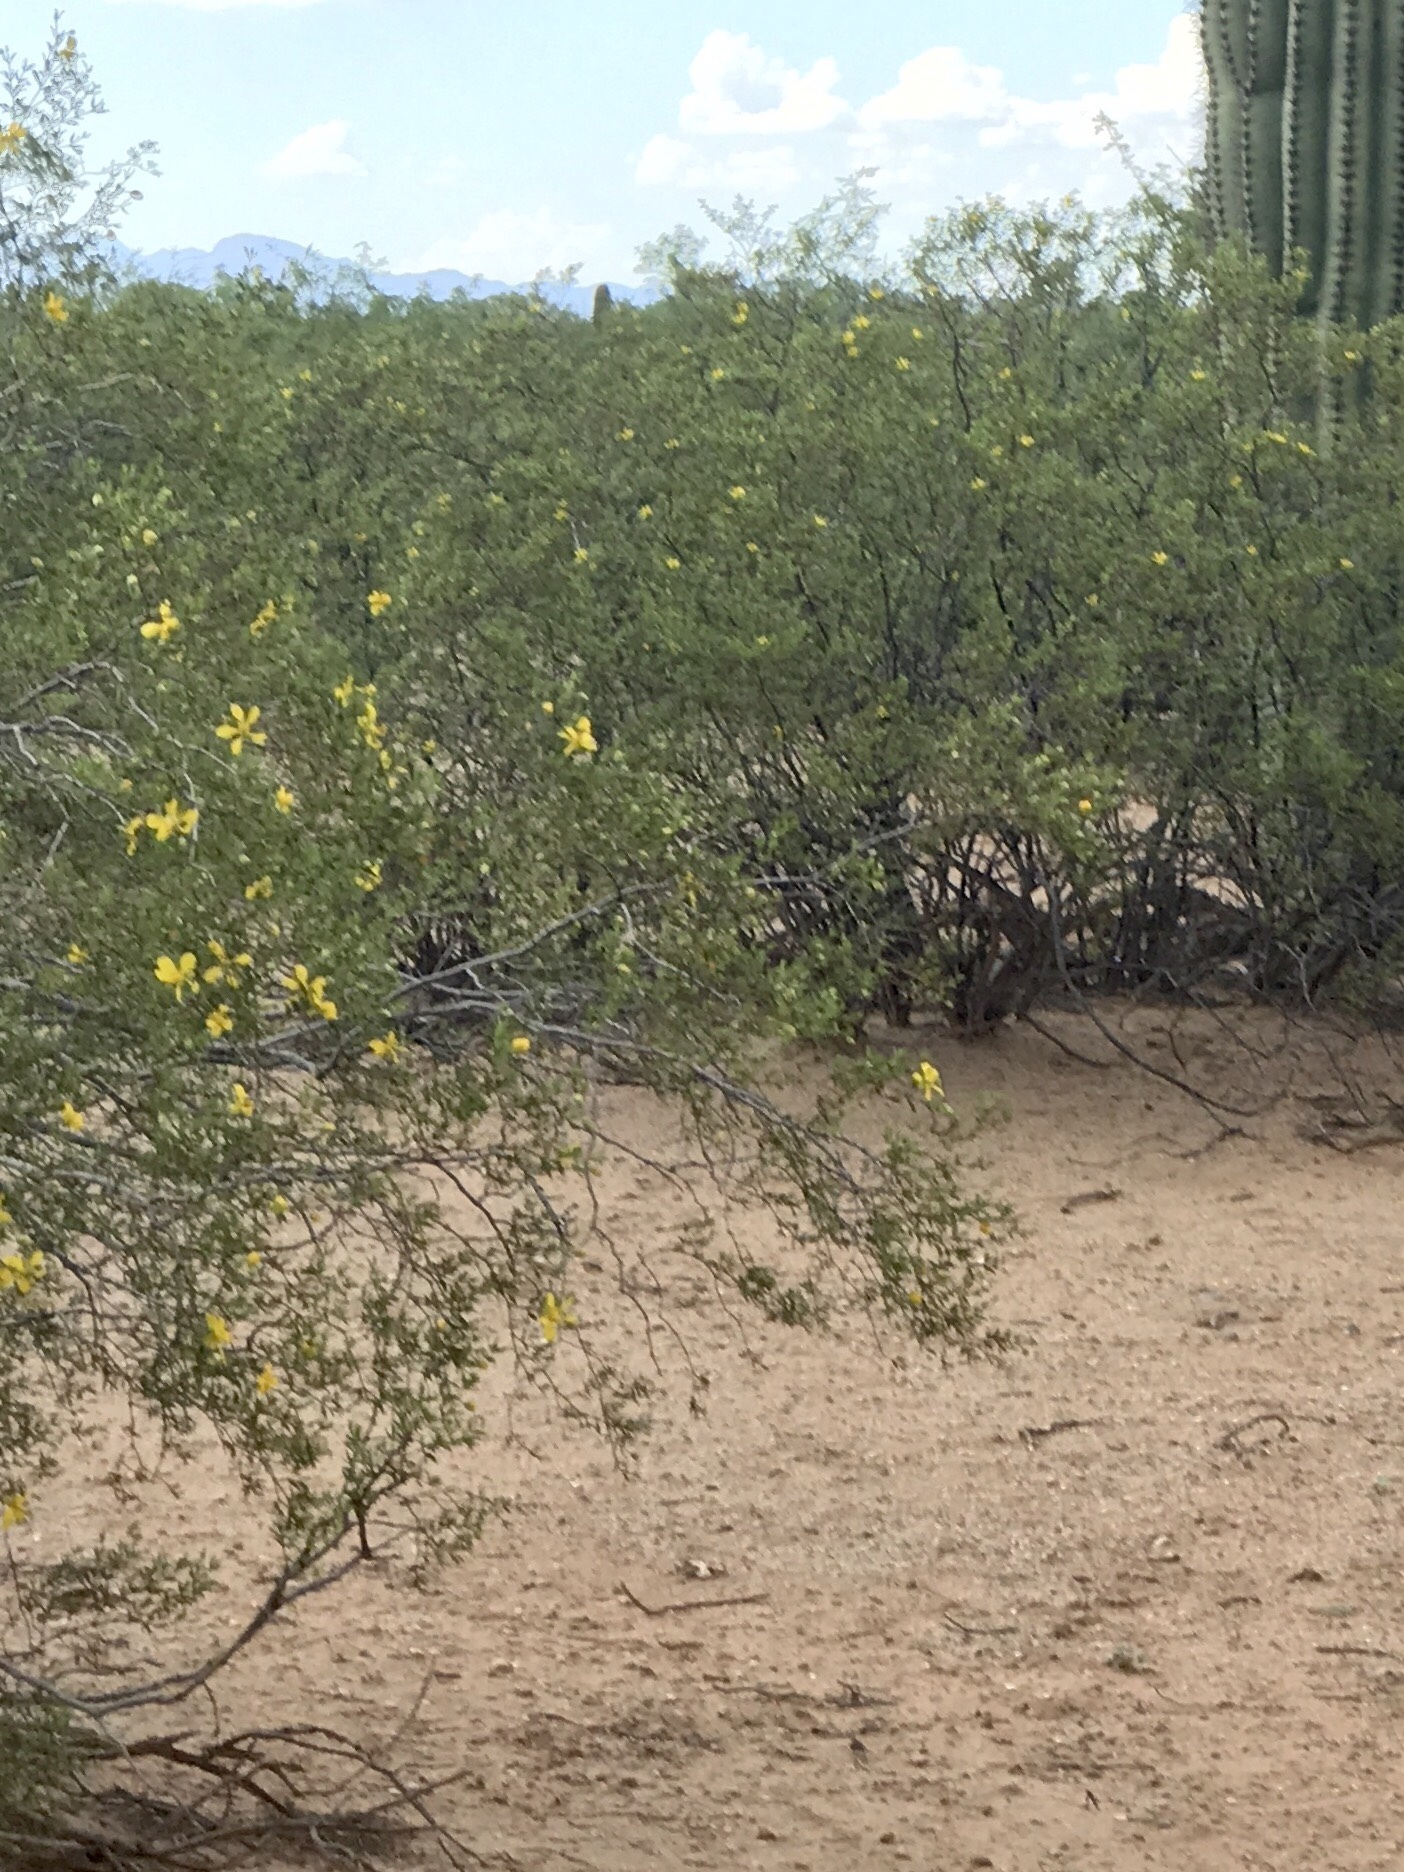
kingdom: Plantae
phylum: Tracheophyta
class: Magnoliopsida
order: Zygophyllales
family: Zygophyllaceae
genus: Larrea
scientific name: Larrea tridentata
